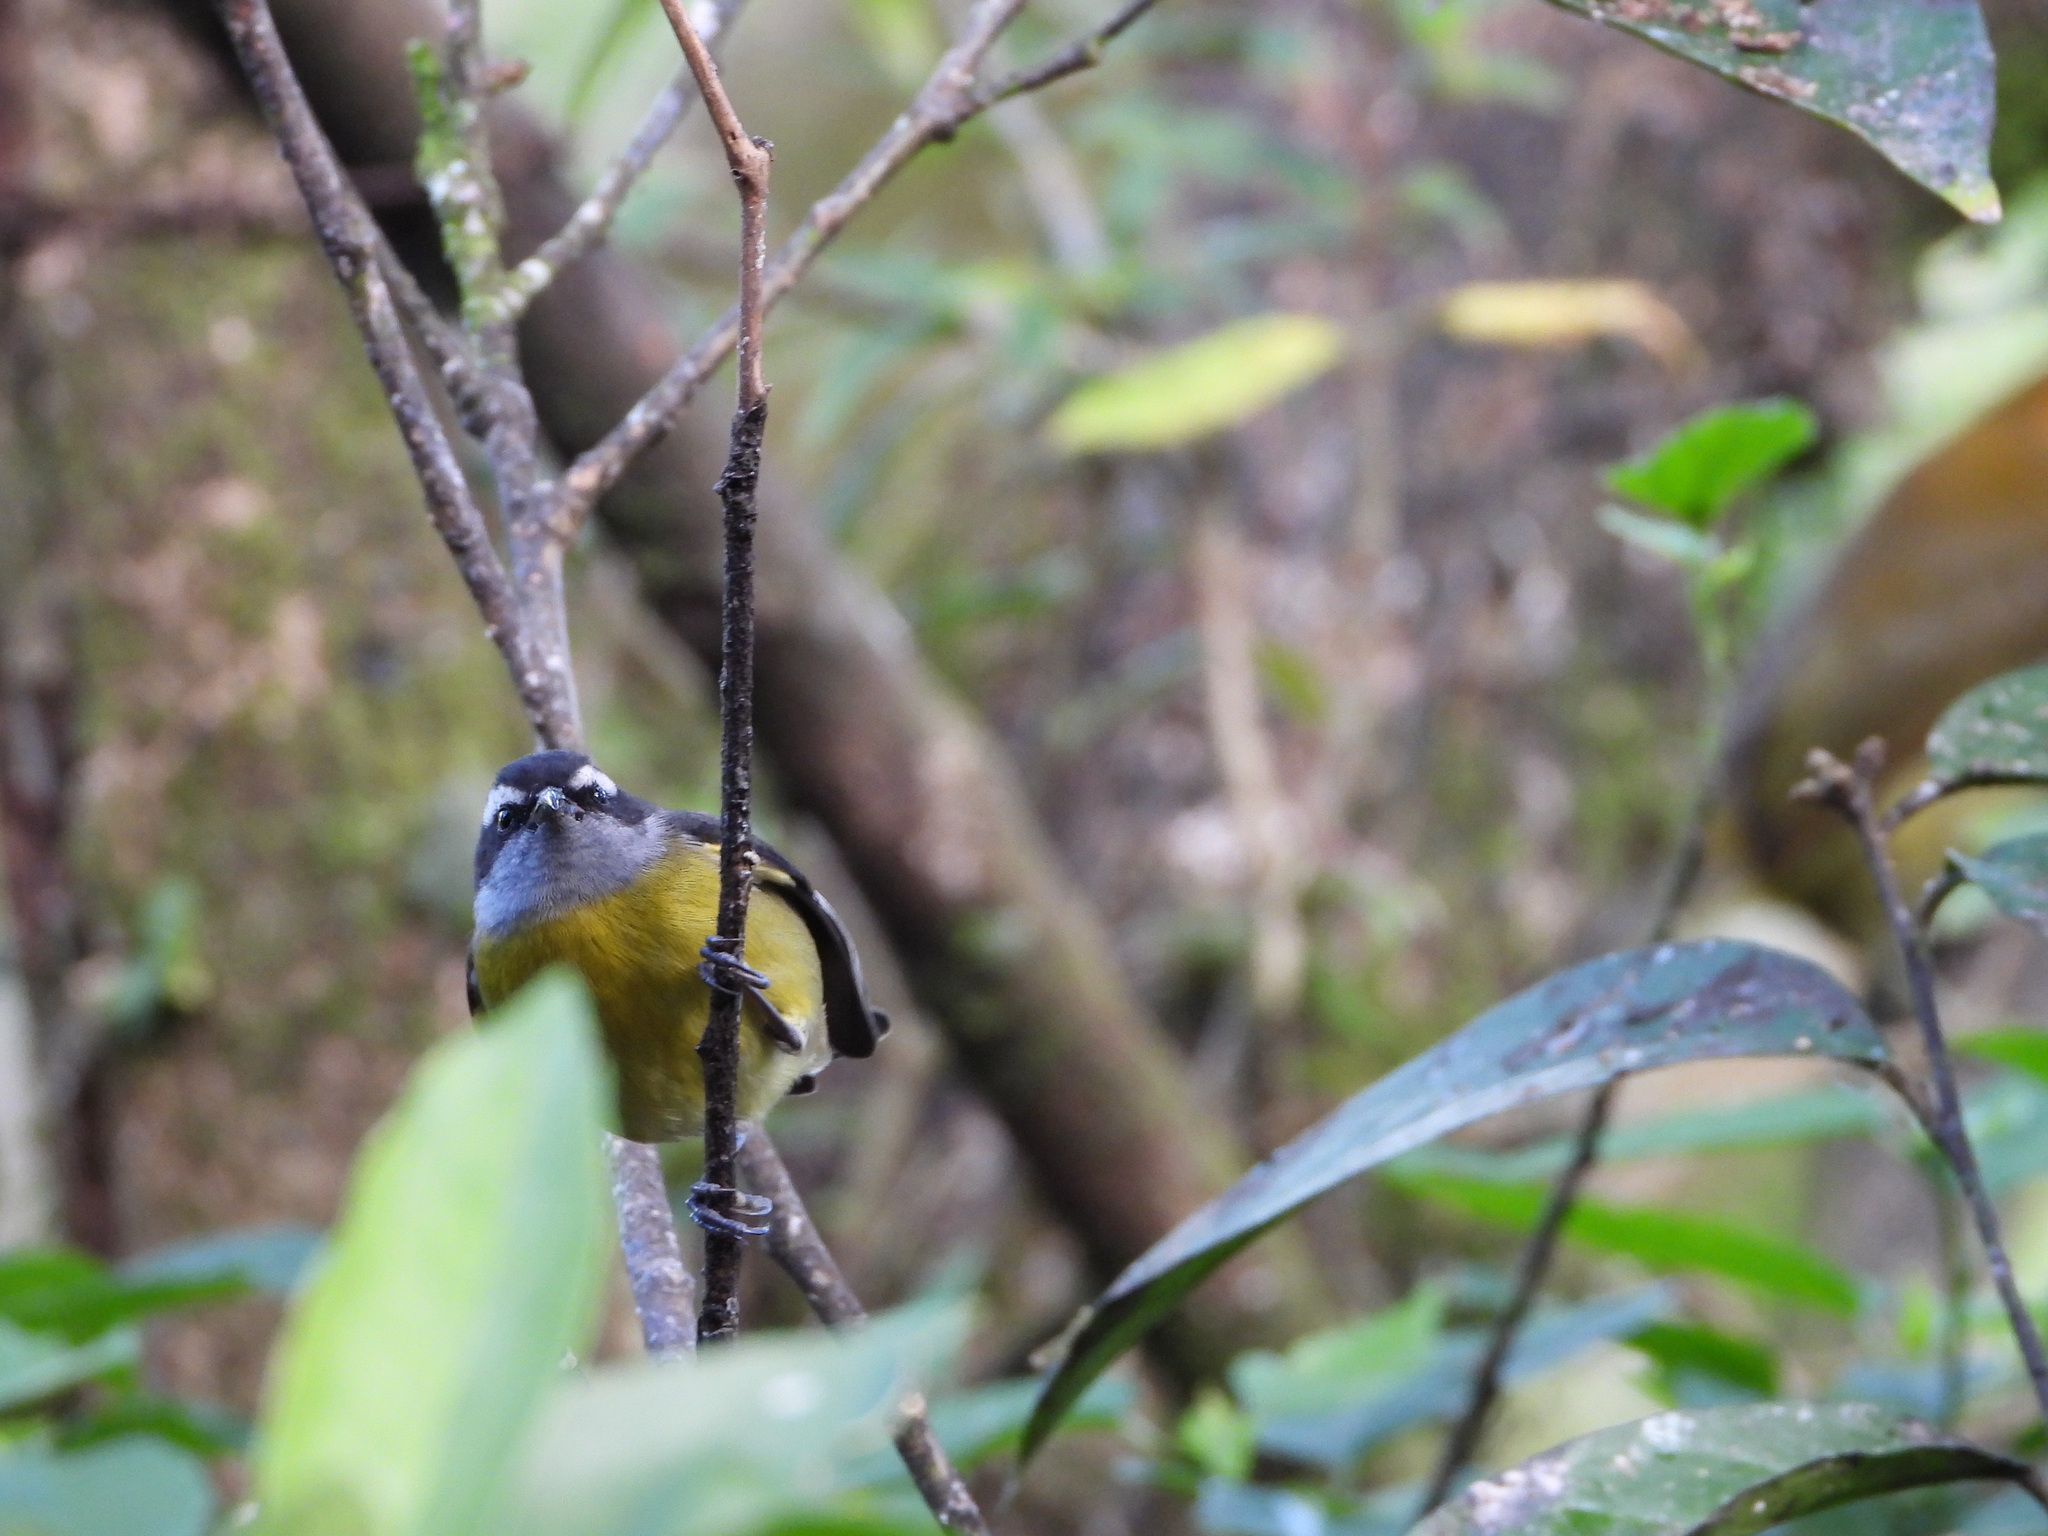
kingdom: Animalia
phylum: Chordata
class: Aves
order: Passeriformes
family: Thraupidae
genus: Coereba
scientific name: Coereba flaveola
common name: Bananaquit
